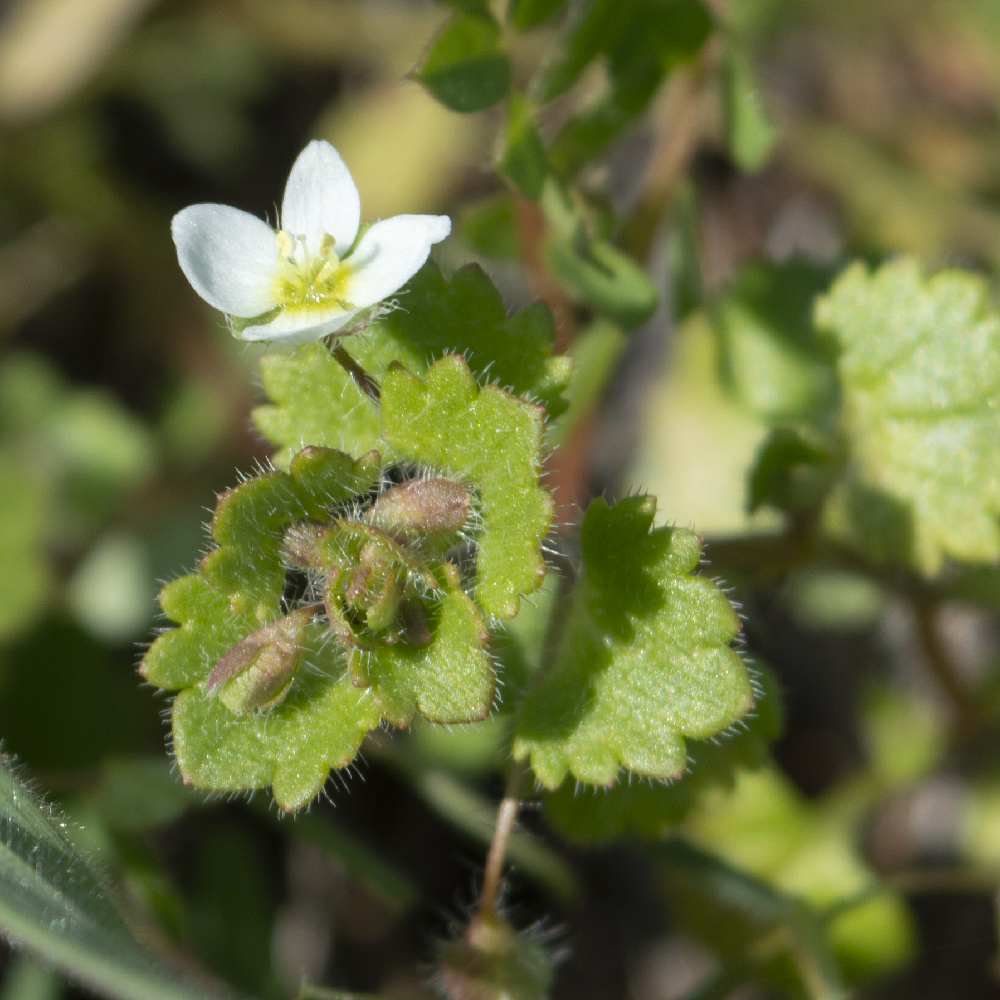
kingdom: Plantae
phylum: Tracheophyta
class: Magnoliopsida
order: Lamiales
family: Plantaginaceae
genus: Veronica
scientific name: Veronica cymbalaria
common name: Pale speedwell
